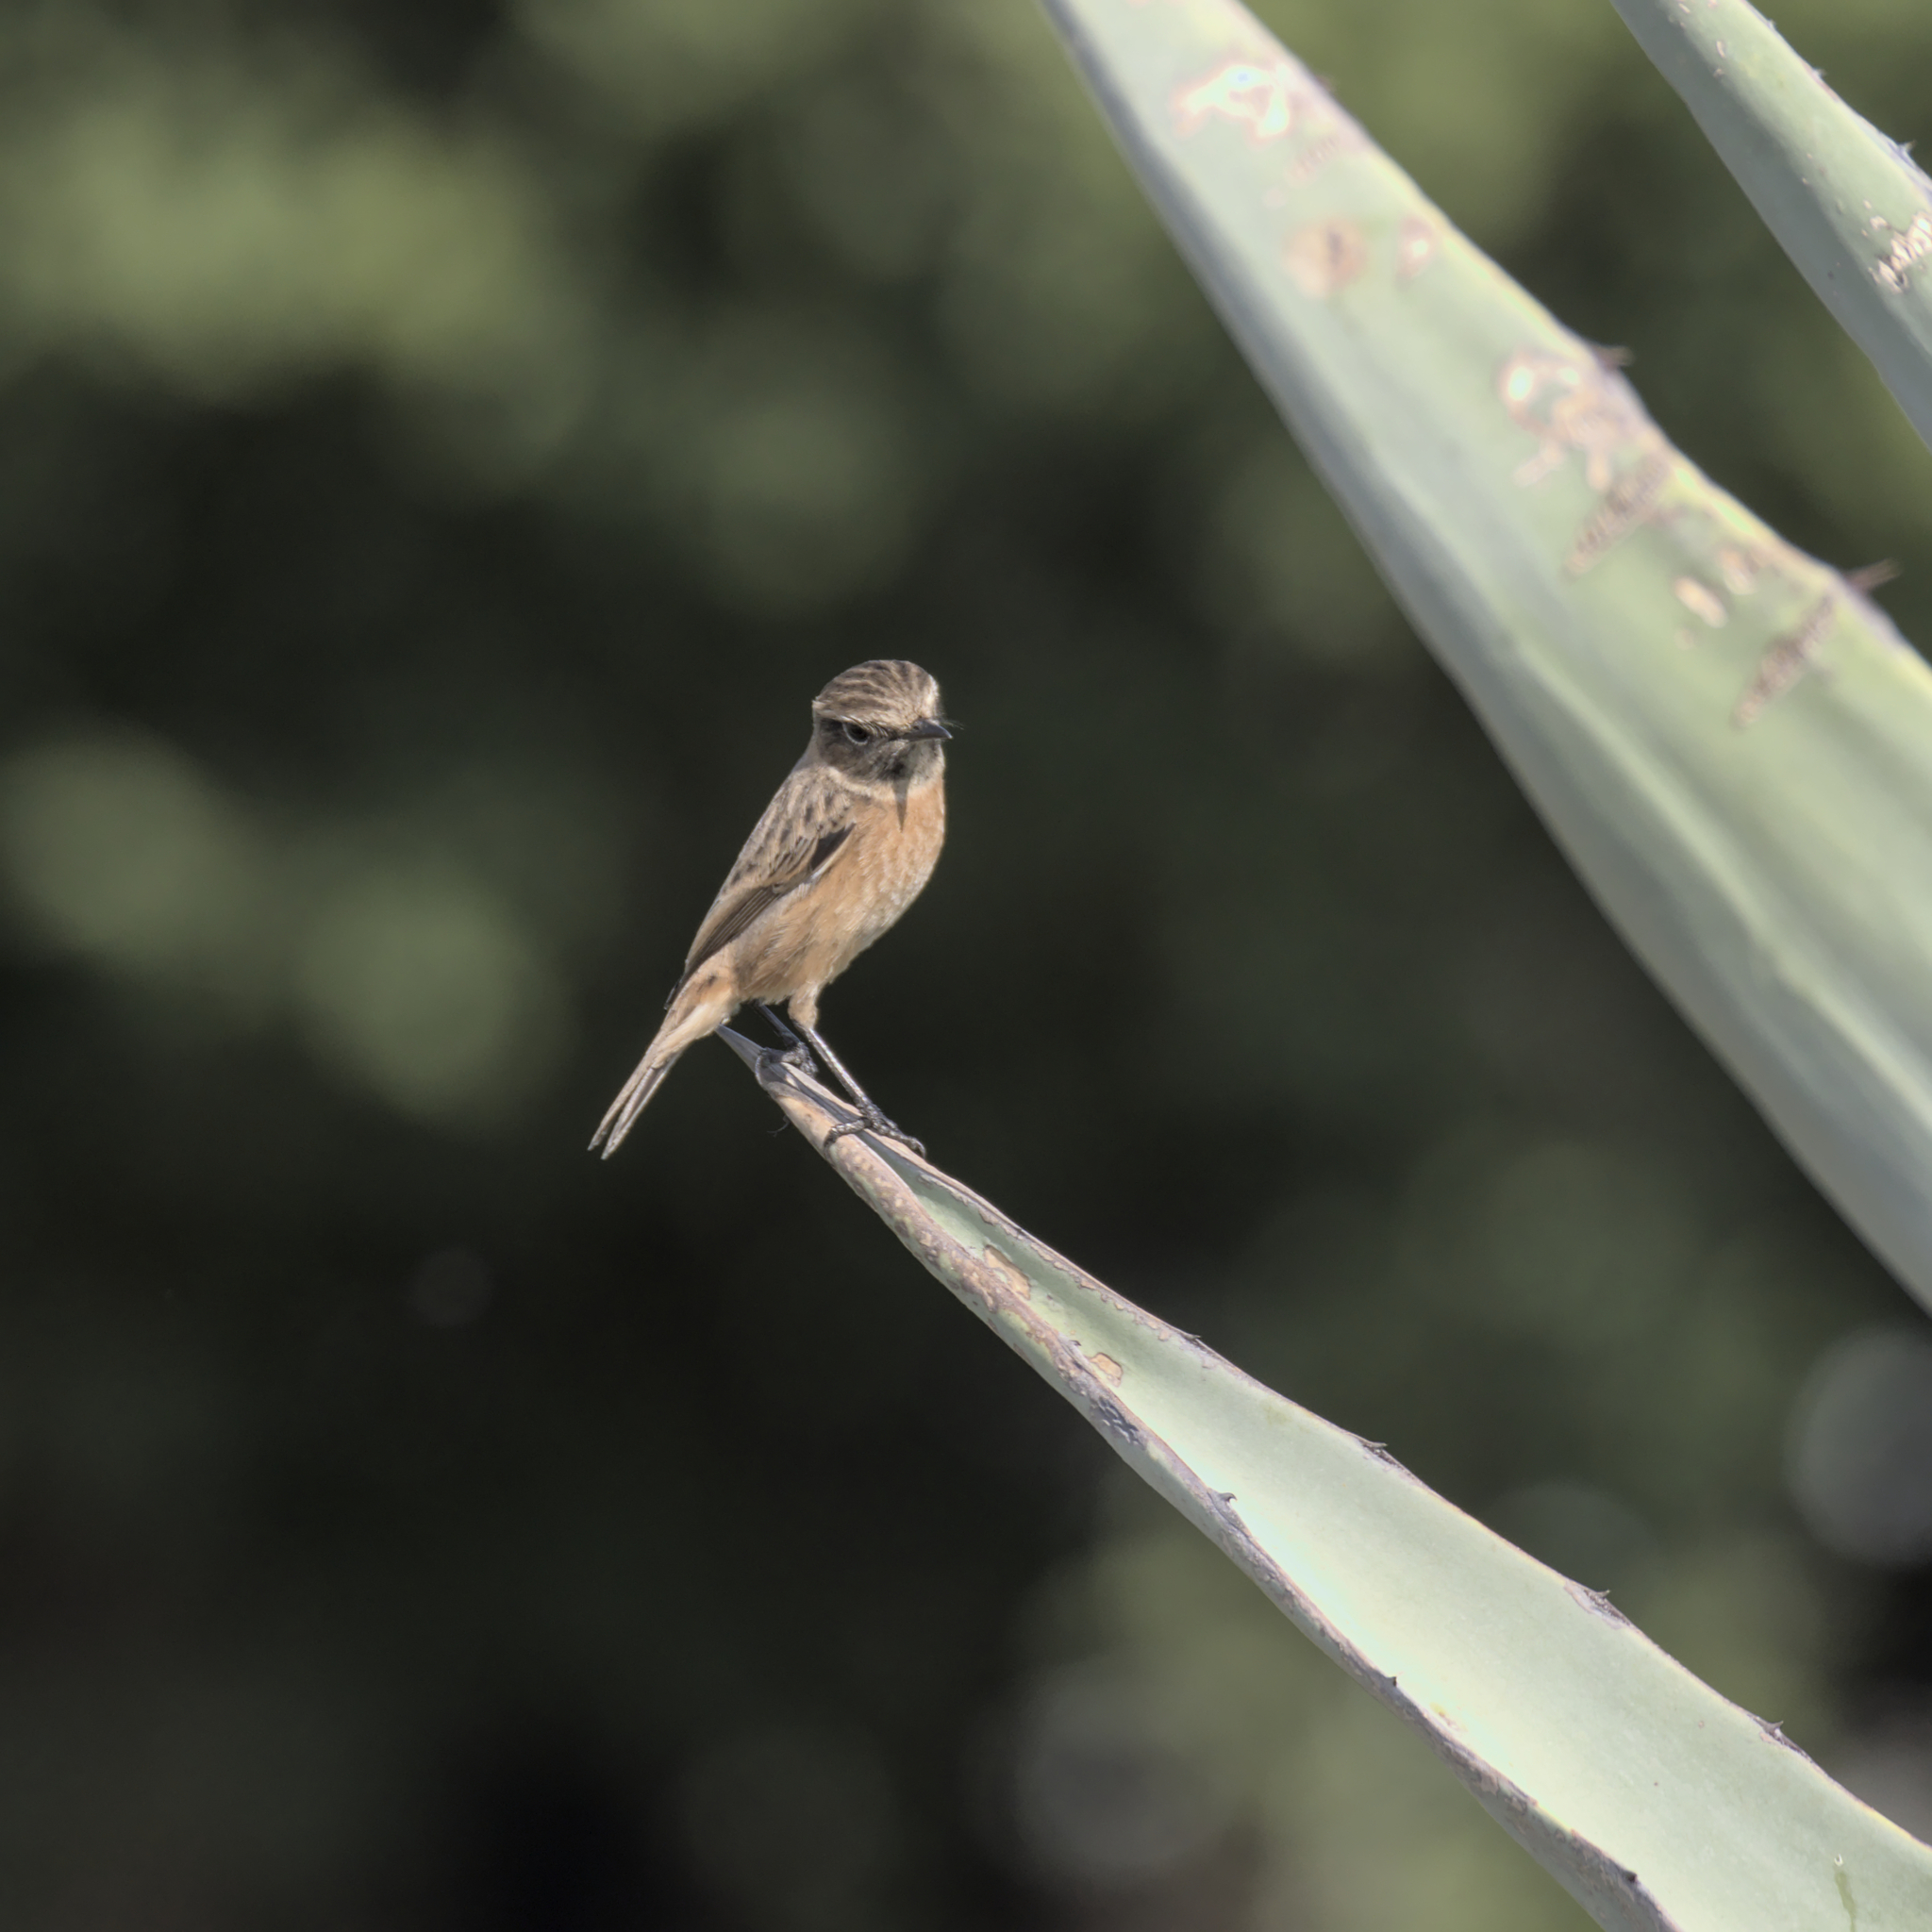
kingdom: Animalia
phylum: Chordata
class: Aves
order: Passeriformes
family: Muscicapidae
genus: Saxicola
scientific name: Saxicola rubicola
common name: European stonechat
